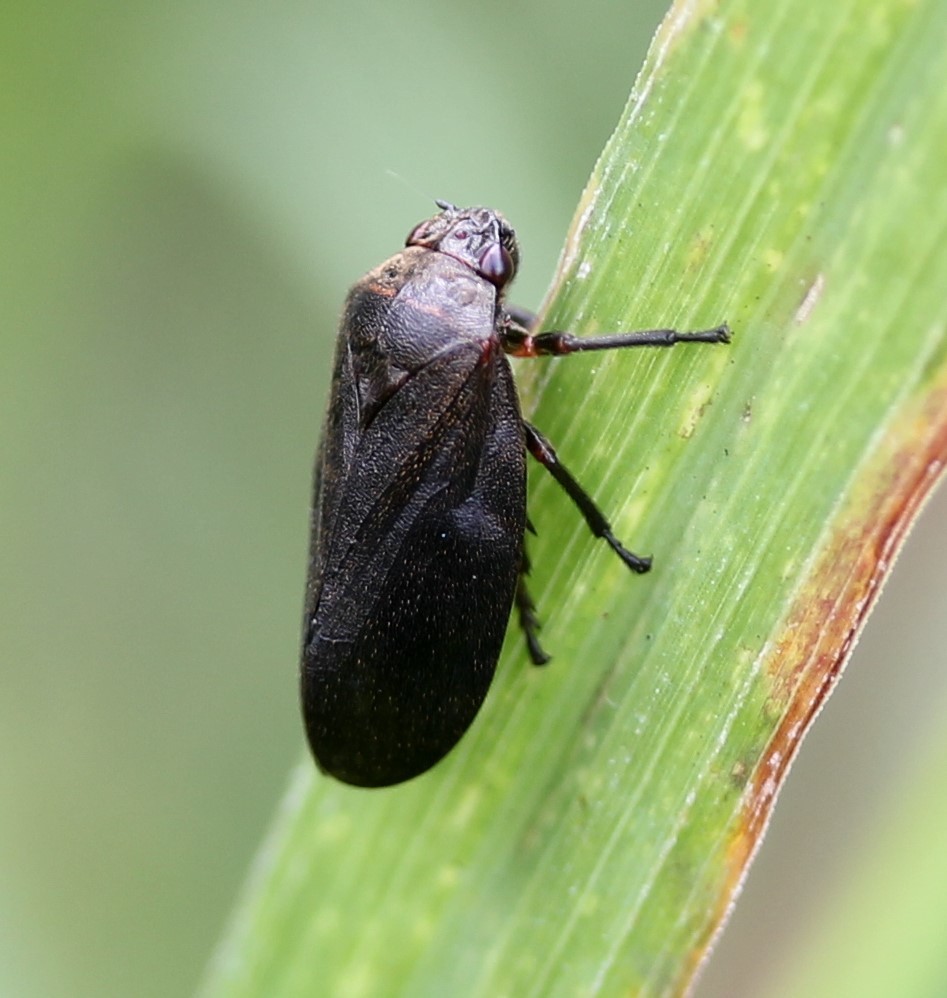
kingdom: Animalia
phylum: Arthropoda
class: Insecta
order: Hemiptera
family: Cercopidae
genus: Prosapia
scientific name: Prosapia ignipectus
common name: Black spittlebug
